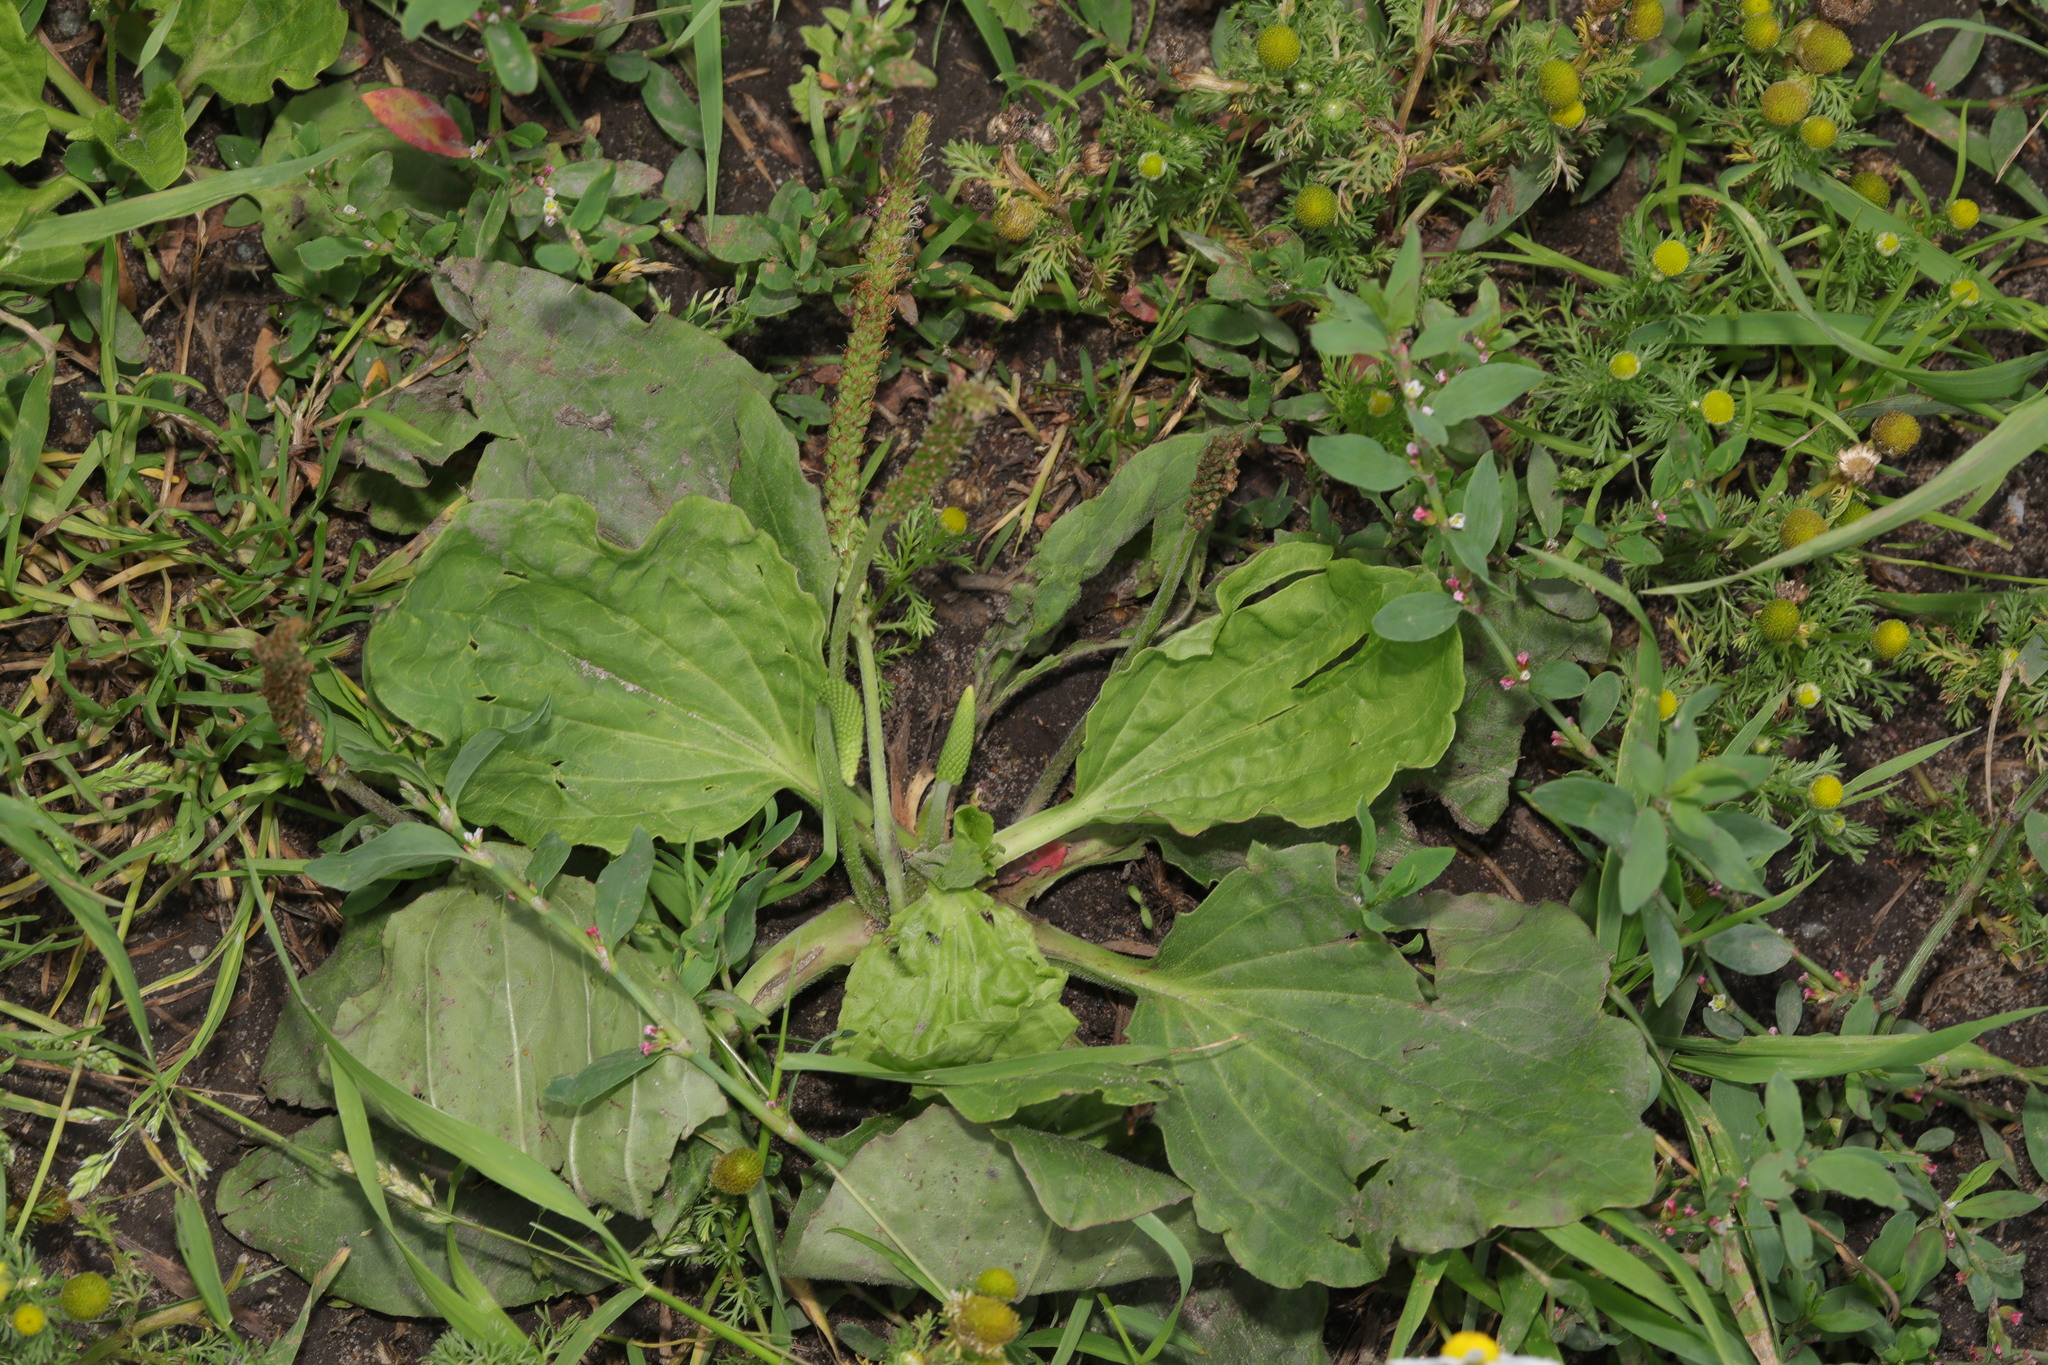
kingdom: Plantae
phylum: Tracheophyta
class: Magnoliopsida
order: Lamiales
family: Plantaginaceae
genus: Plantago
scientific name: Plantago major
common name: Common plantain
